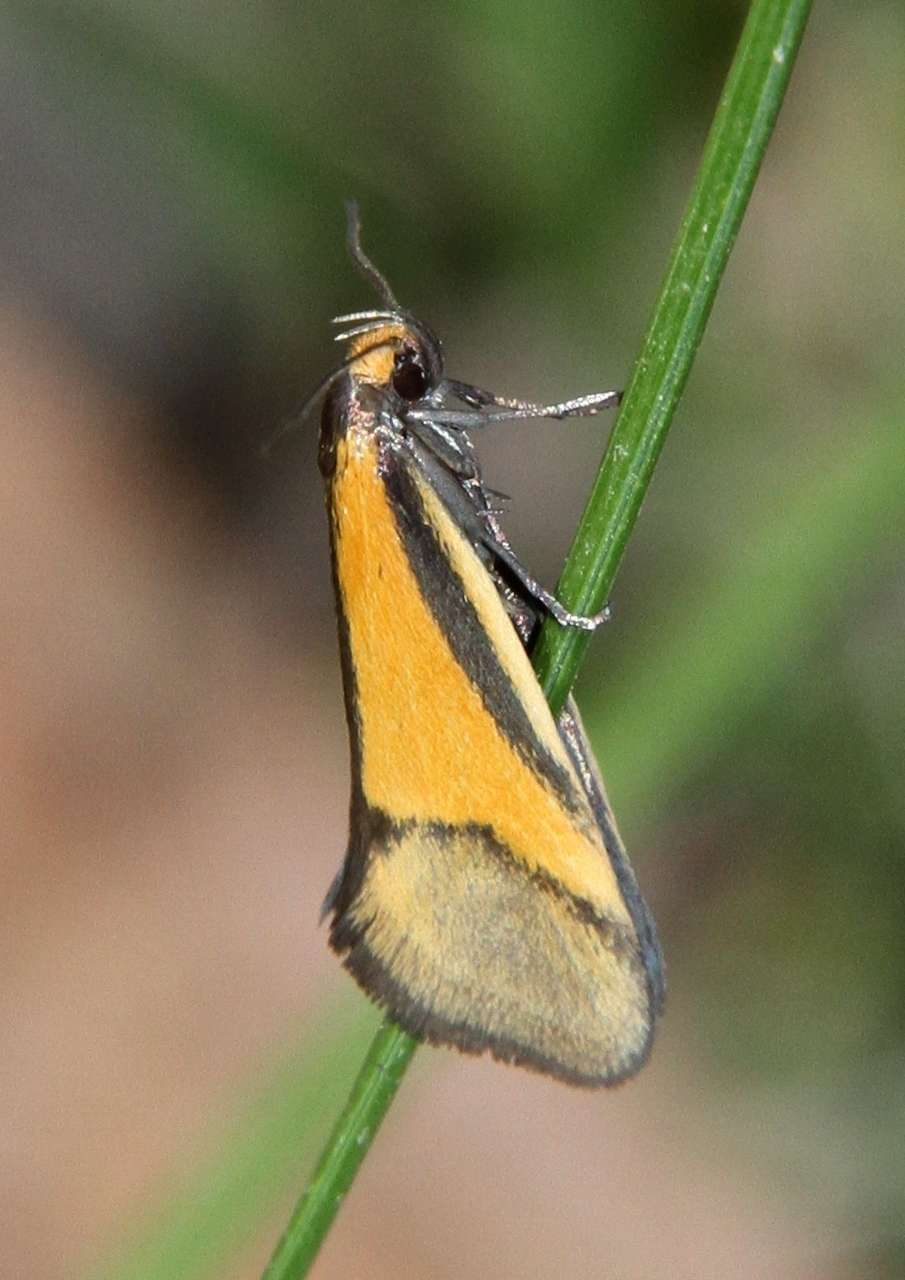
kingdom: Animalia
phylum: Arthropoda
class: Insecta
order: Lepidoptera
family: Oecophoridae
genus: Philobota
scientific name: Philobota arabella
